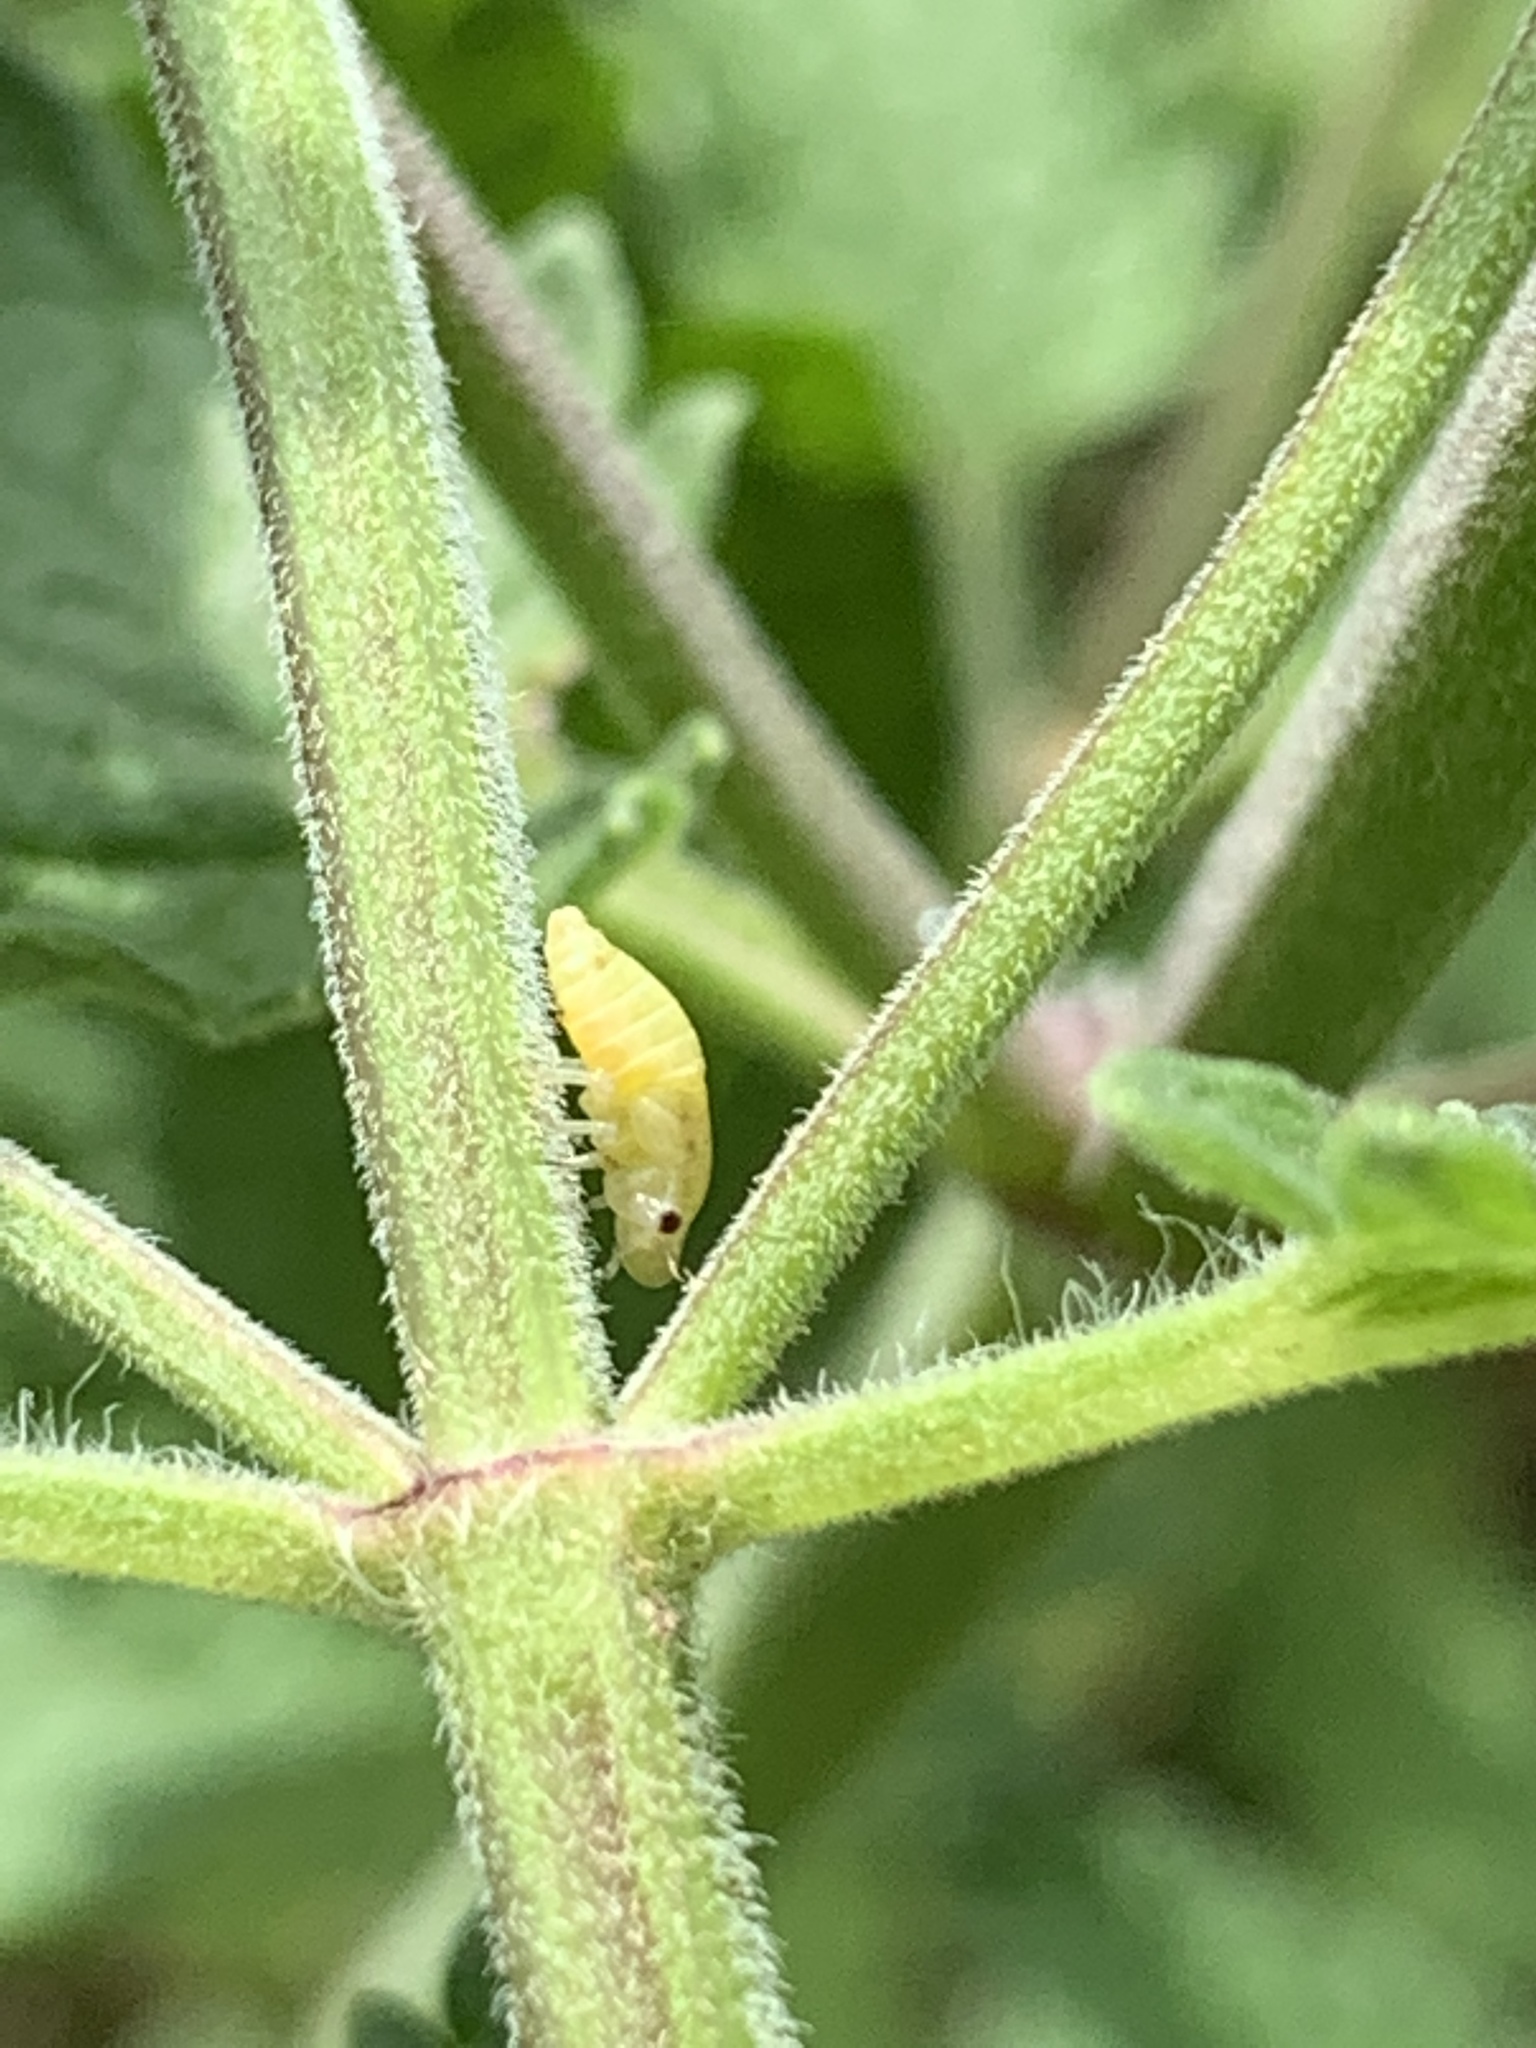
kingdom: Animalia
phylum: Arthropoda
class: Insecta
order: Hemiptera
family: Aphrophoridae
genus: Philaenus
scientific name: Philaenus spumarius
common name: Meadow spittlebug
